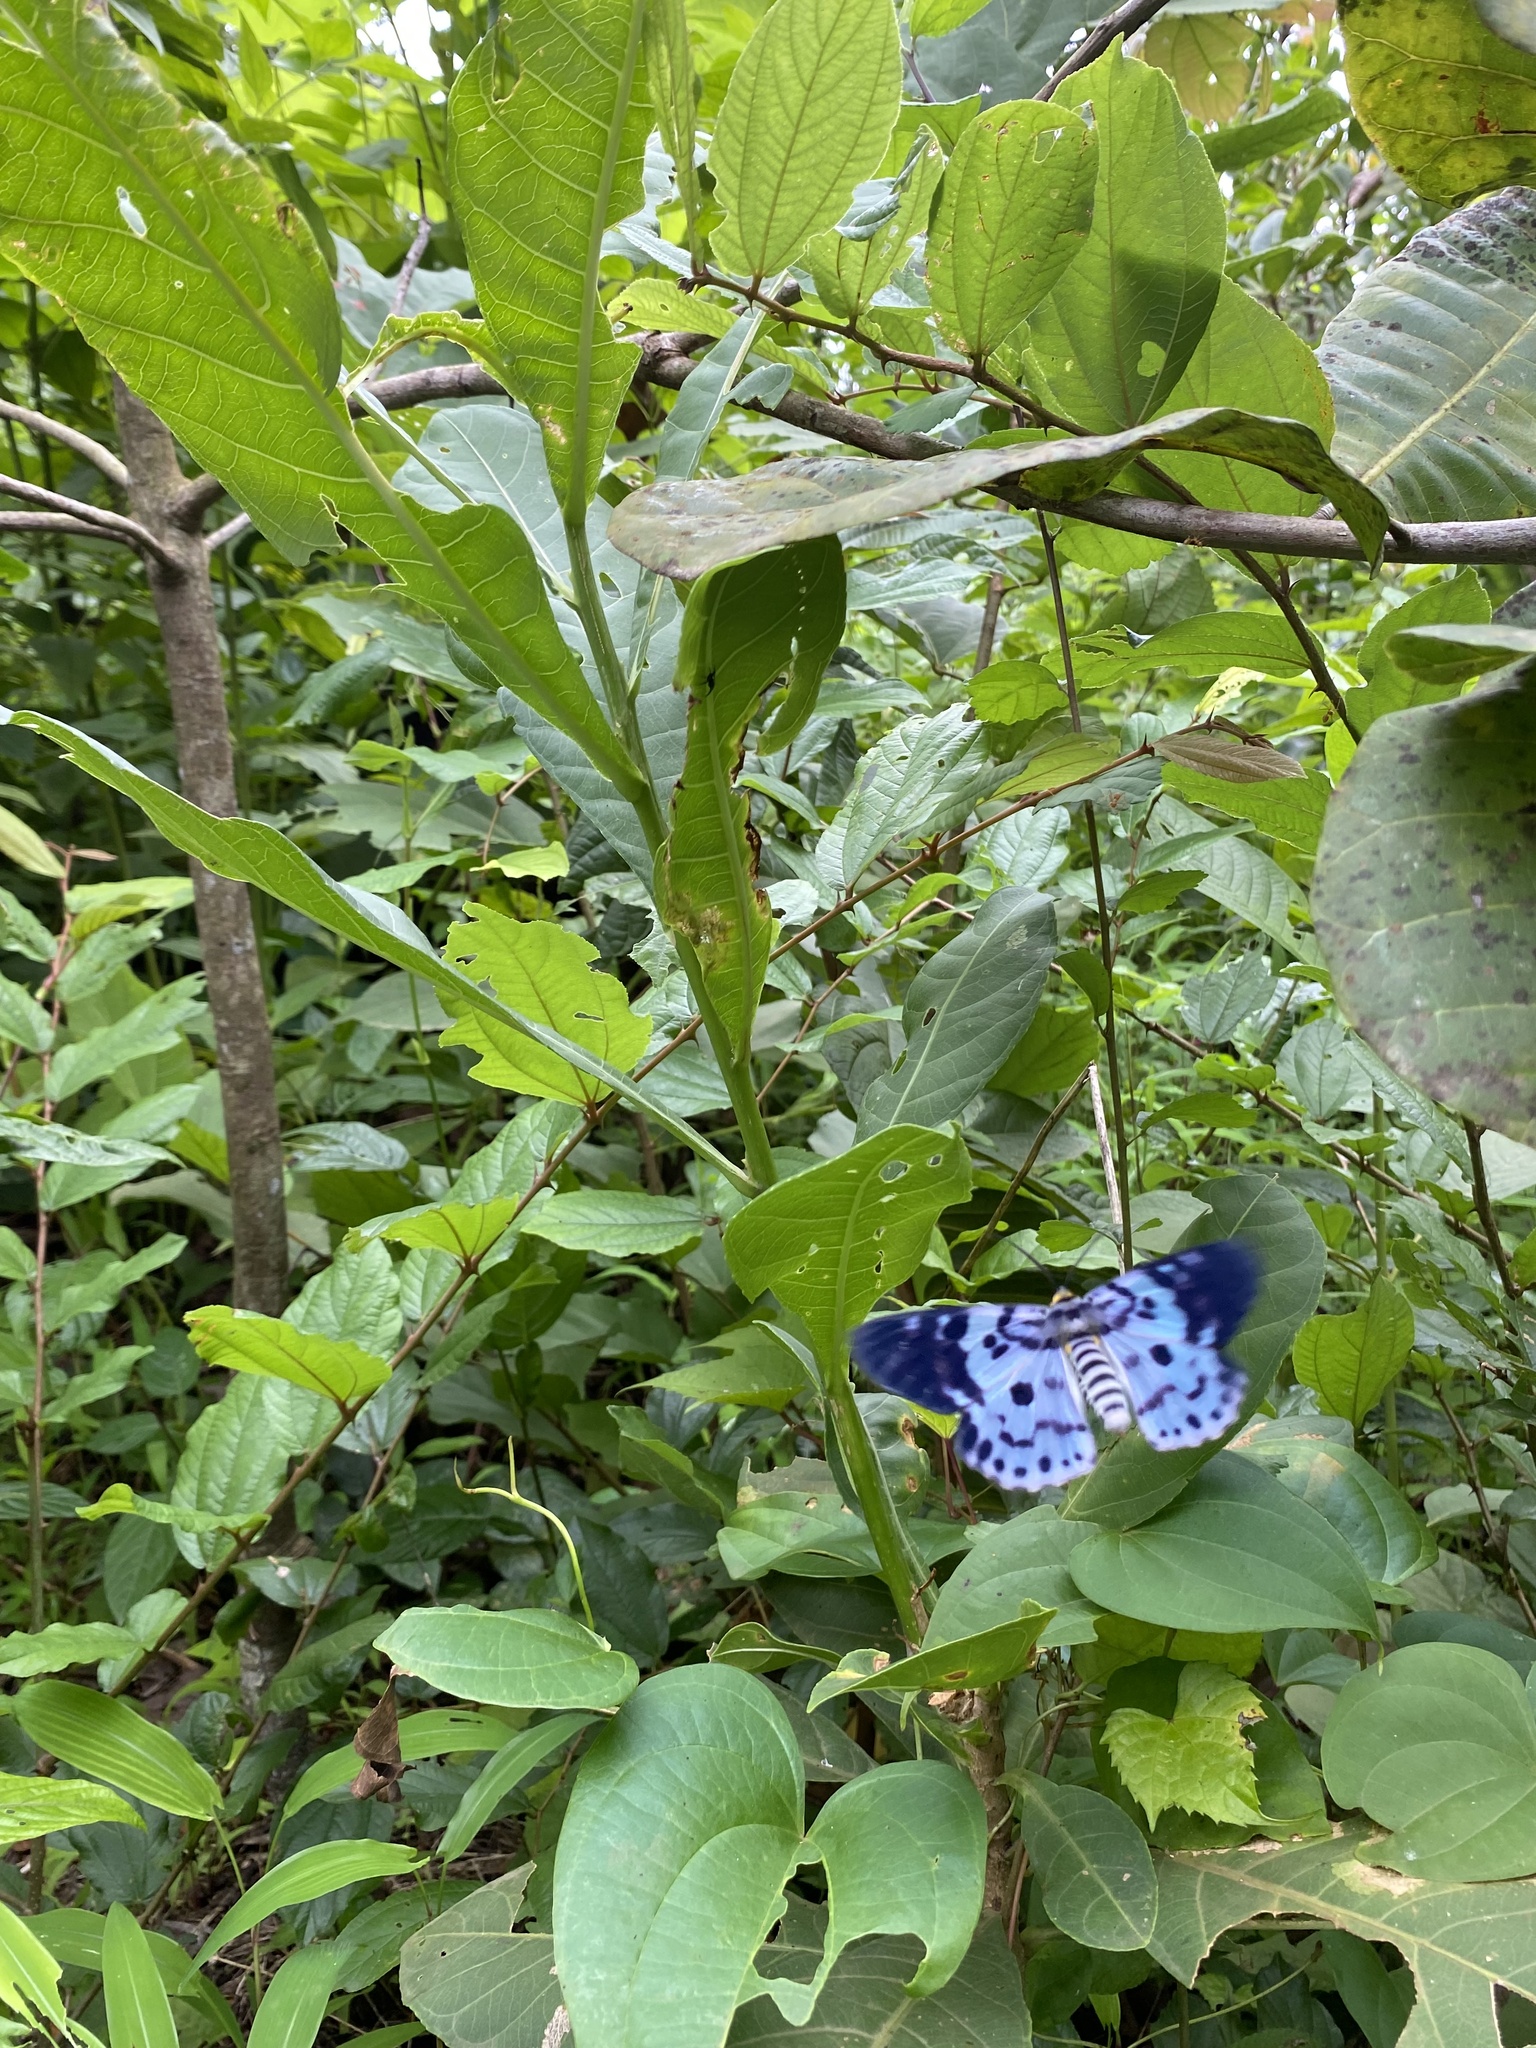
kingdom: Animalia
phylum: Arthropoda
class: Insecta
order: Lepidoptera
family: Geometridae
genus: Dysphania
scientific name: Dysphania percota
